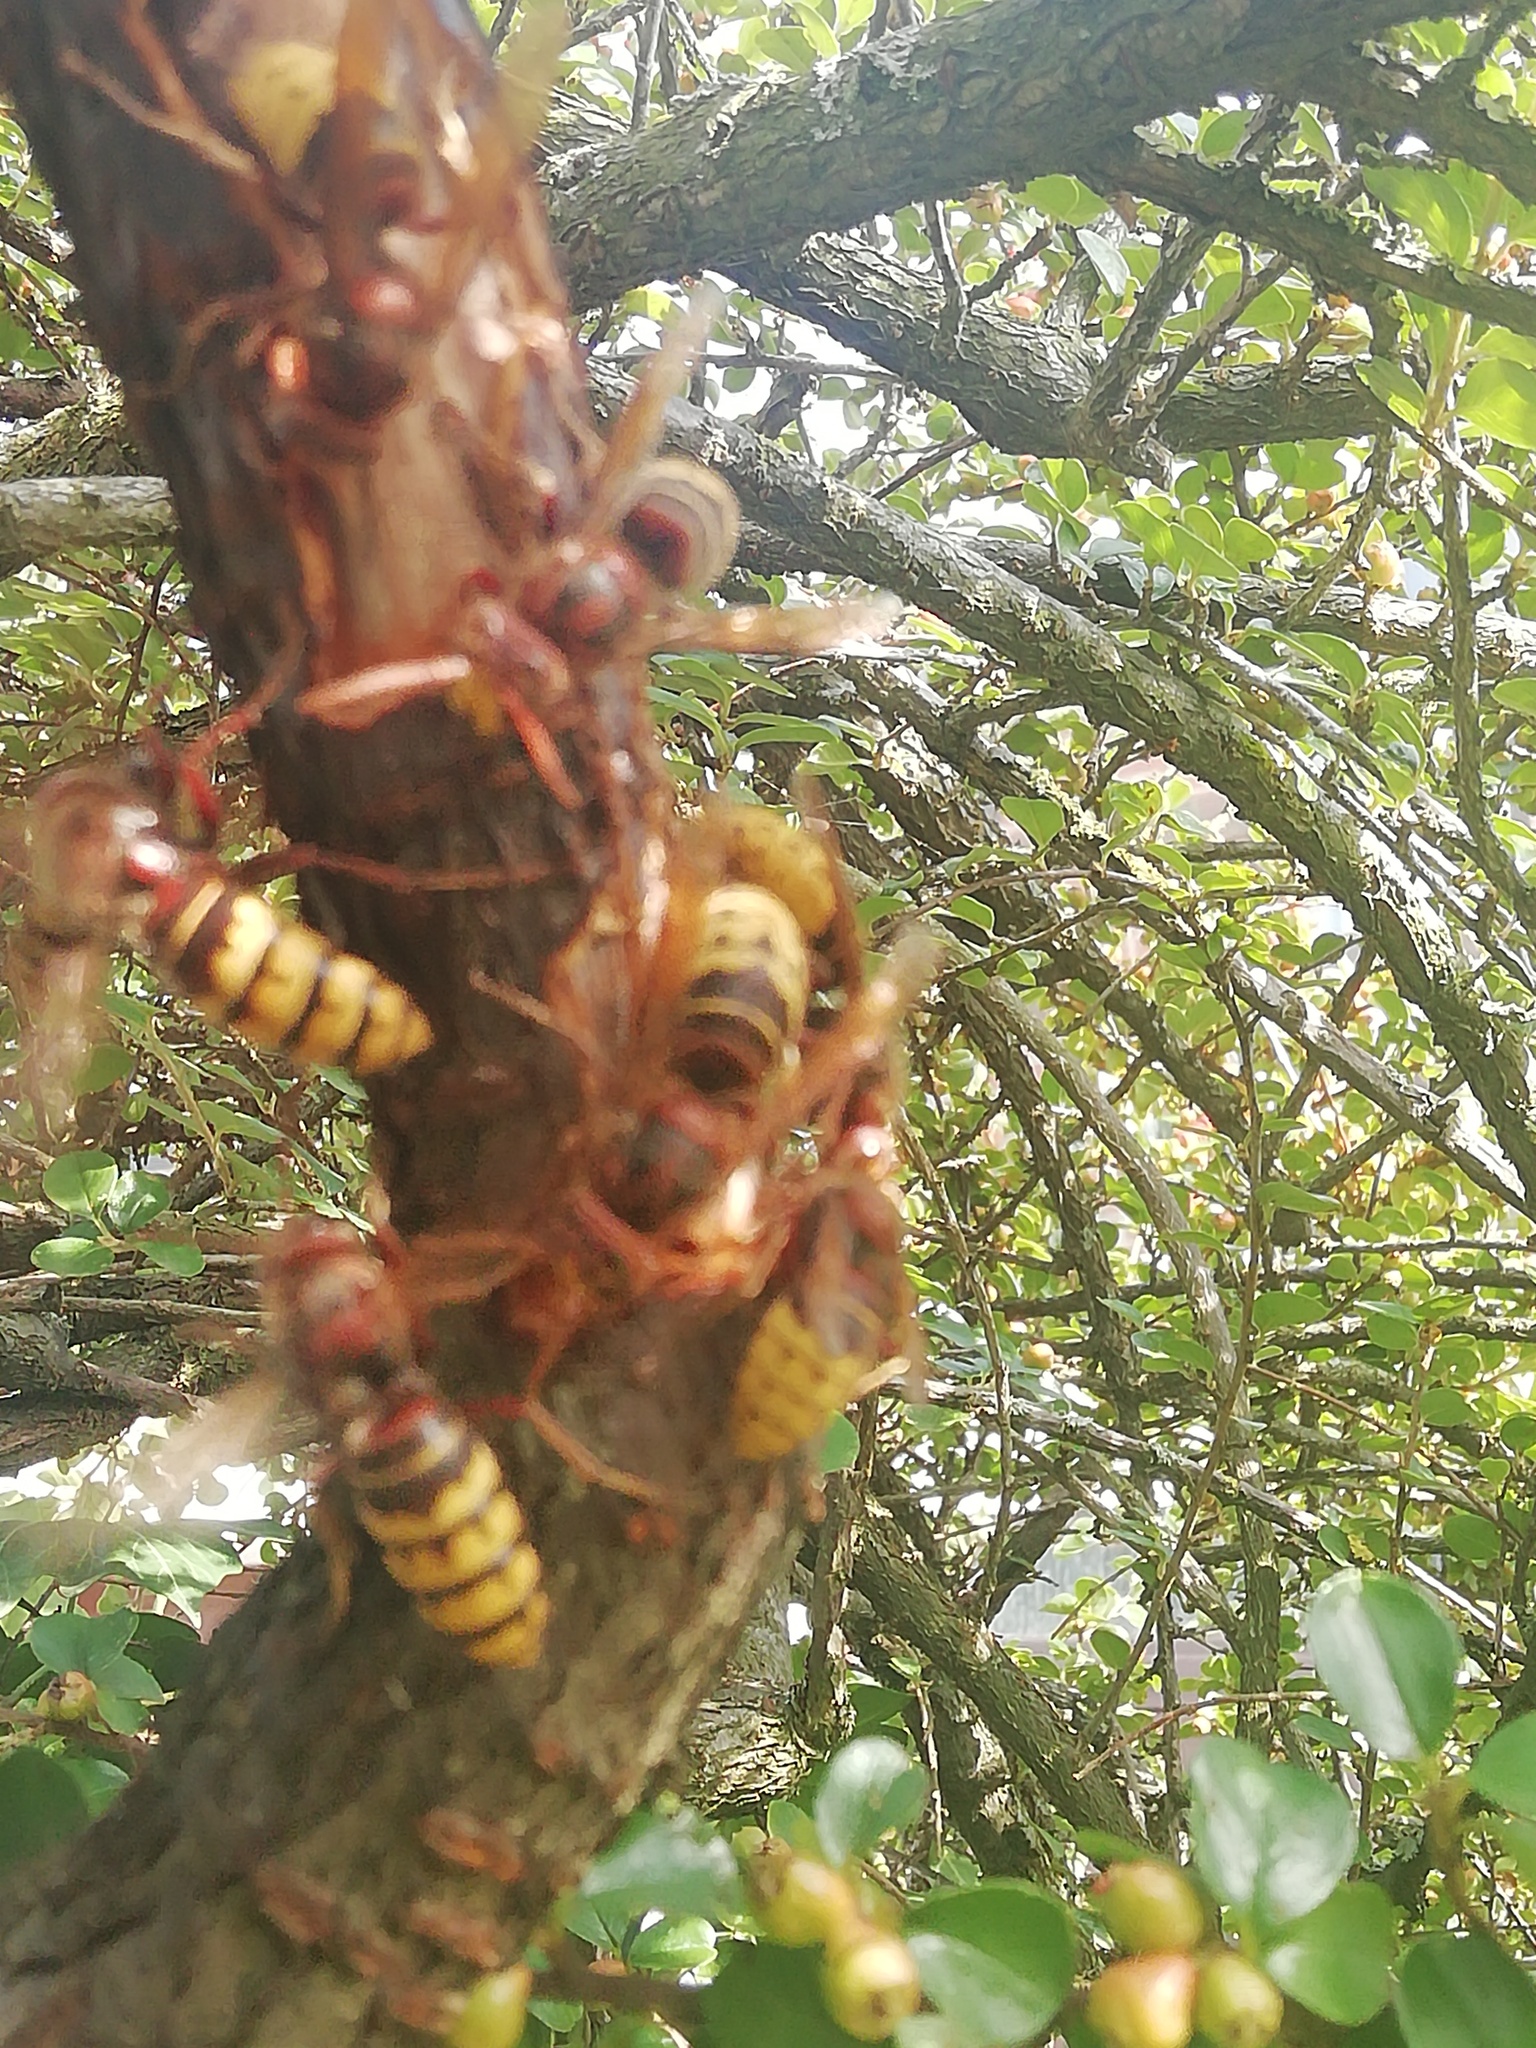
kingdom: Animalia
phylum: Arthropoda
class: Insecta
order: Hymenoptera
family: Vespidae
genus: Vespa
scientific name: Vespa crabro
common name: Hornet
